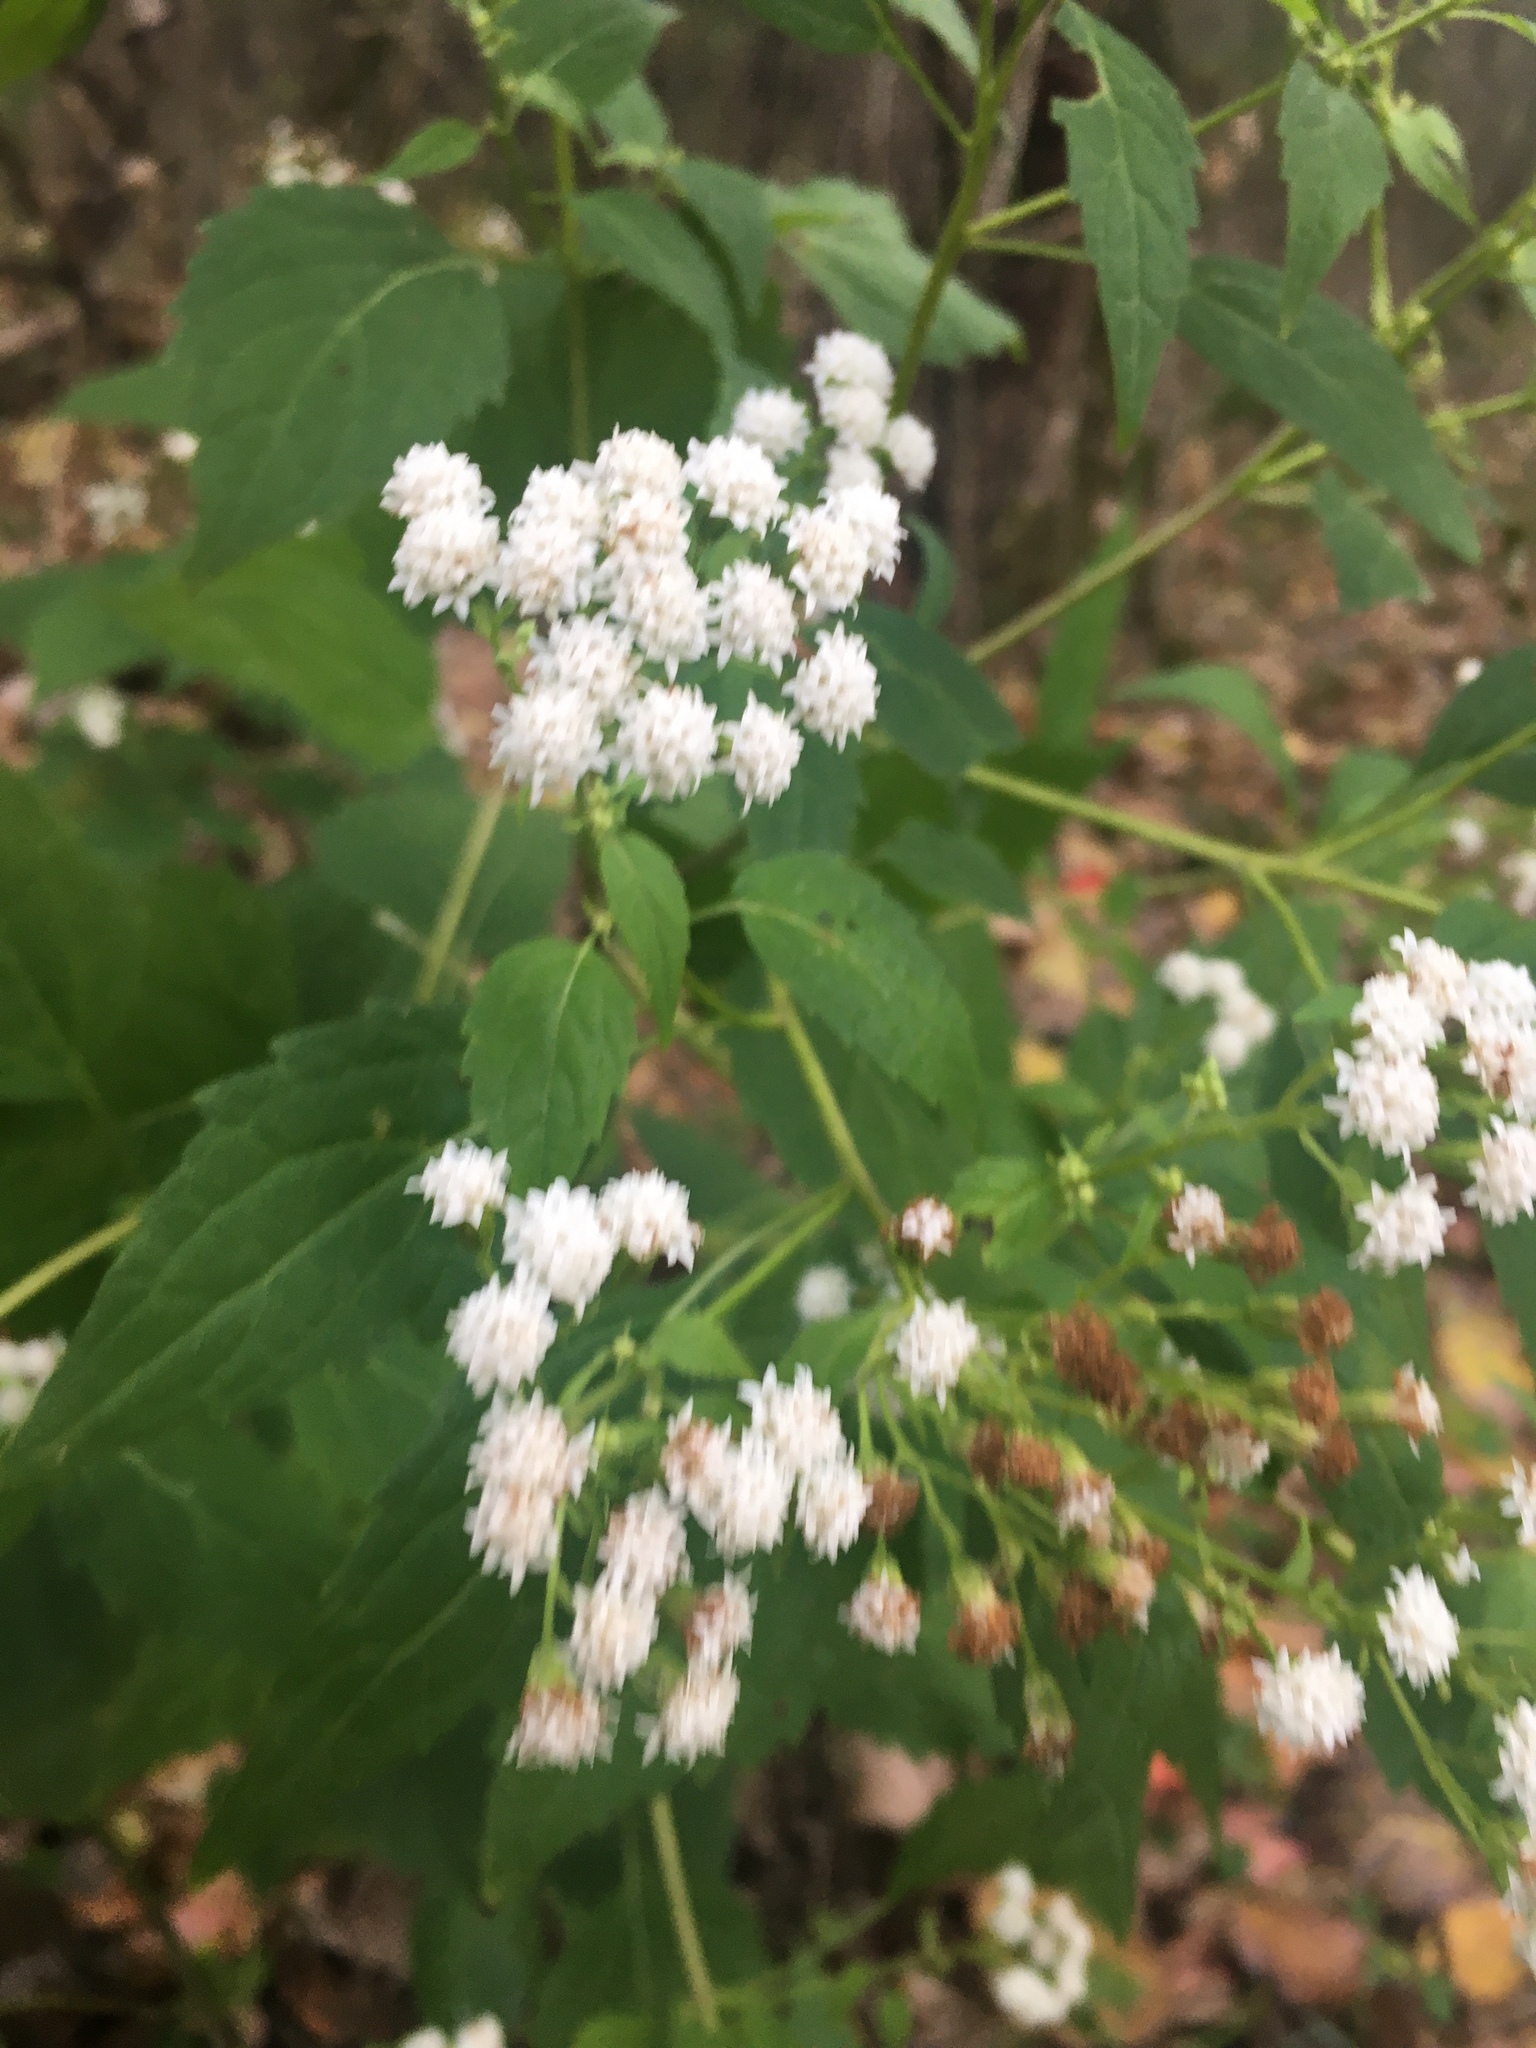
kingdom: Plantae
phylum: Tracheophyta
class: Magnoliopsida
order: Asterales
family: Asteraceae
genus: Ageratina
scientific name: Ageratina altissima
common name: White snakeroot
